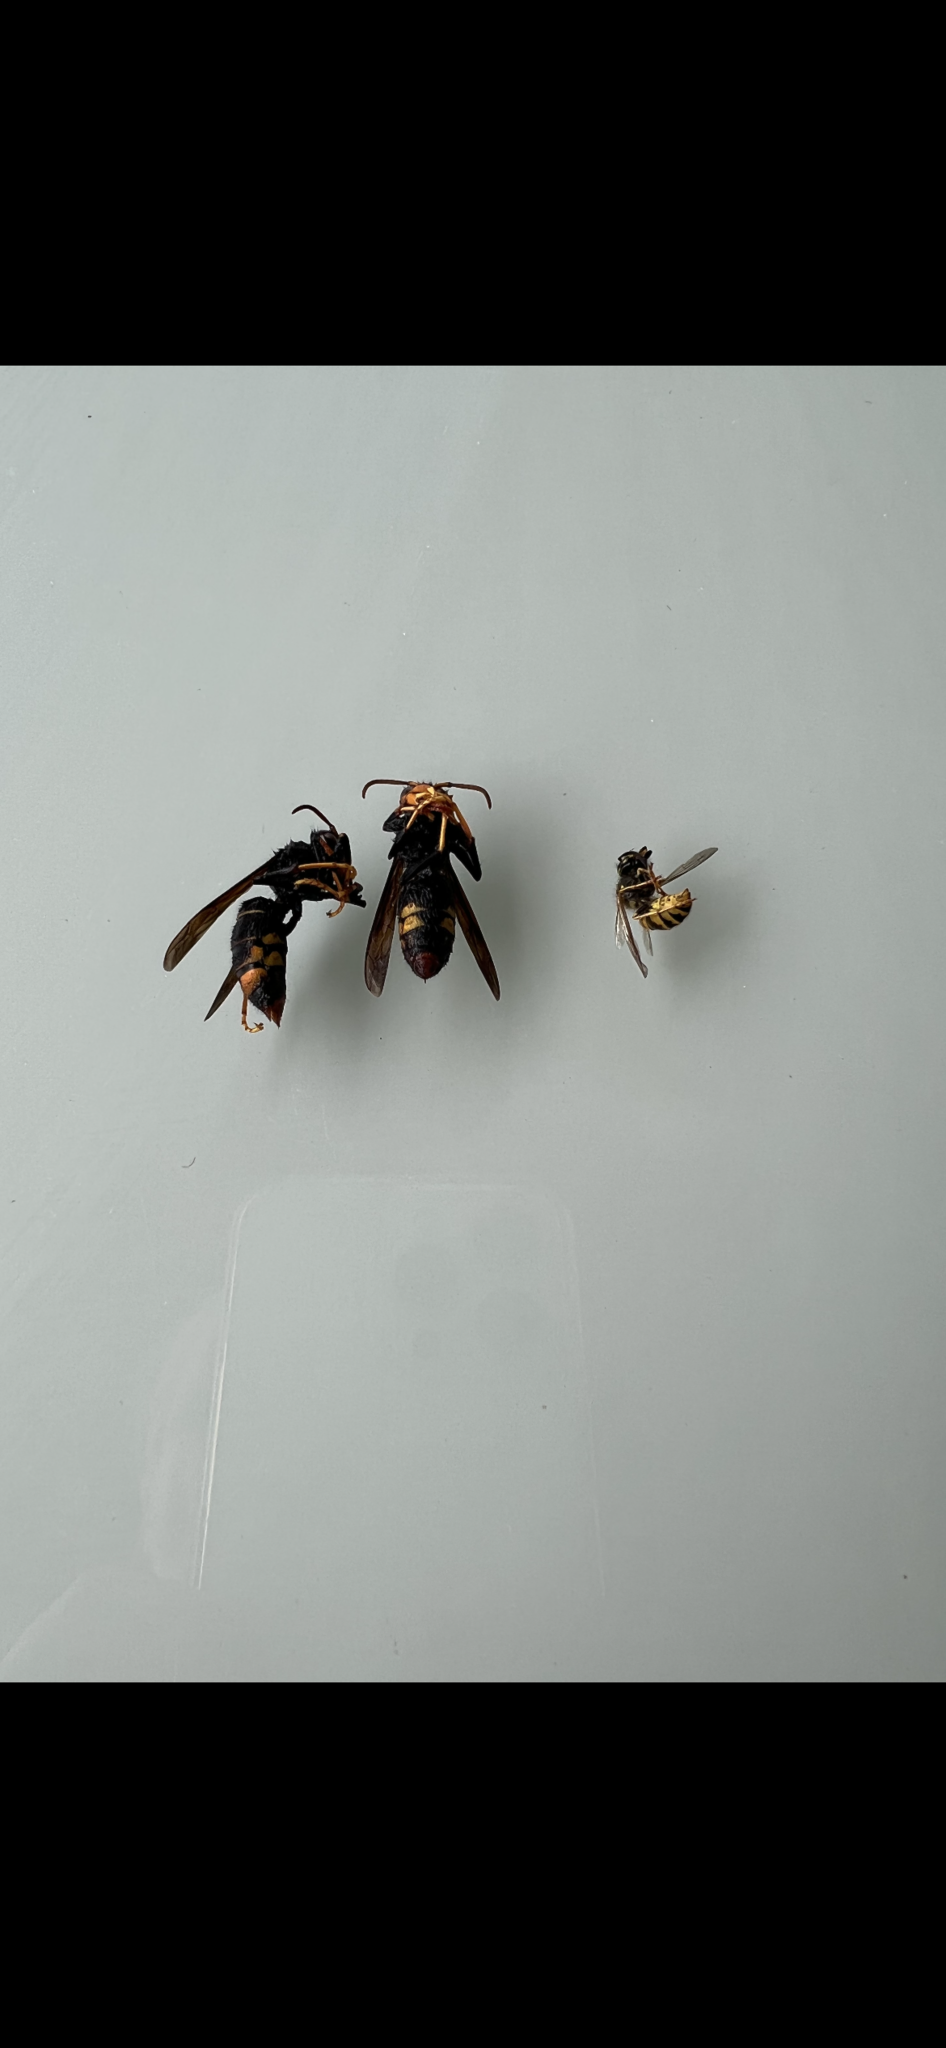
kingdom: Animalia
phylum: Arthropoda
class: Insecta
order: Hymenoptera
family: Vespidae
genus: Vespa
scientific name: Vespa velutina
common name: Asian hornet
